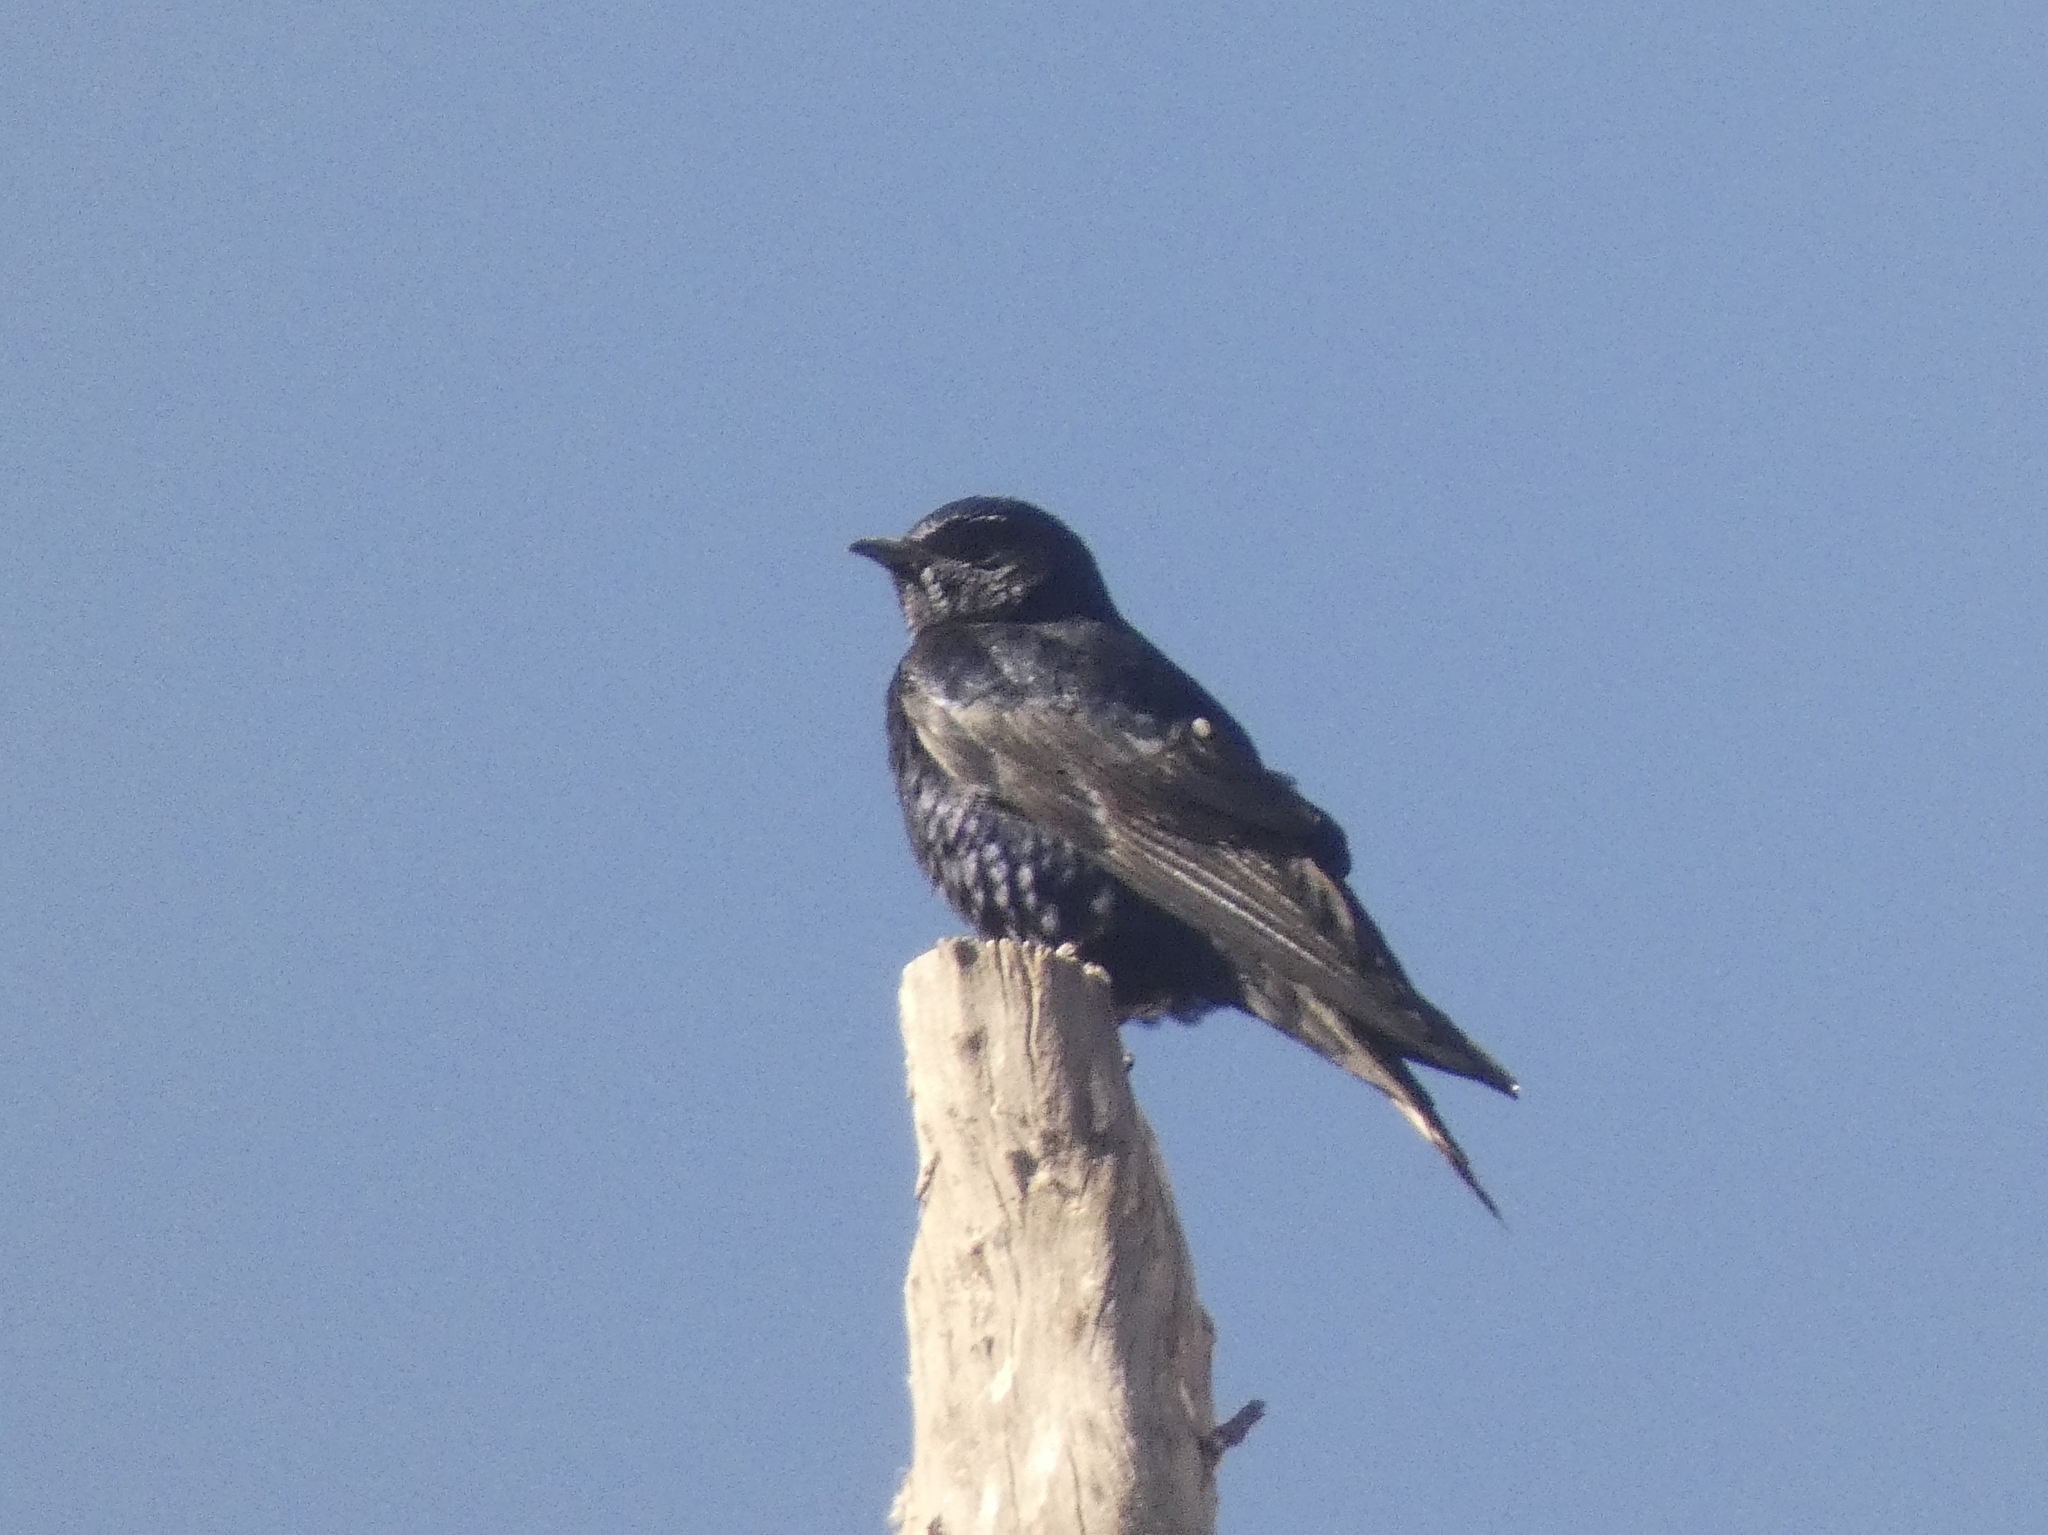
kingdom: Animalia
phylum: Chordata
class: Aves
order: Passeriformes
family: Hirundinidae
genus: Progne
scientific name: Progne elegans
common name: Southern martin
